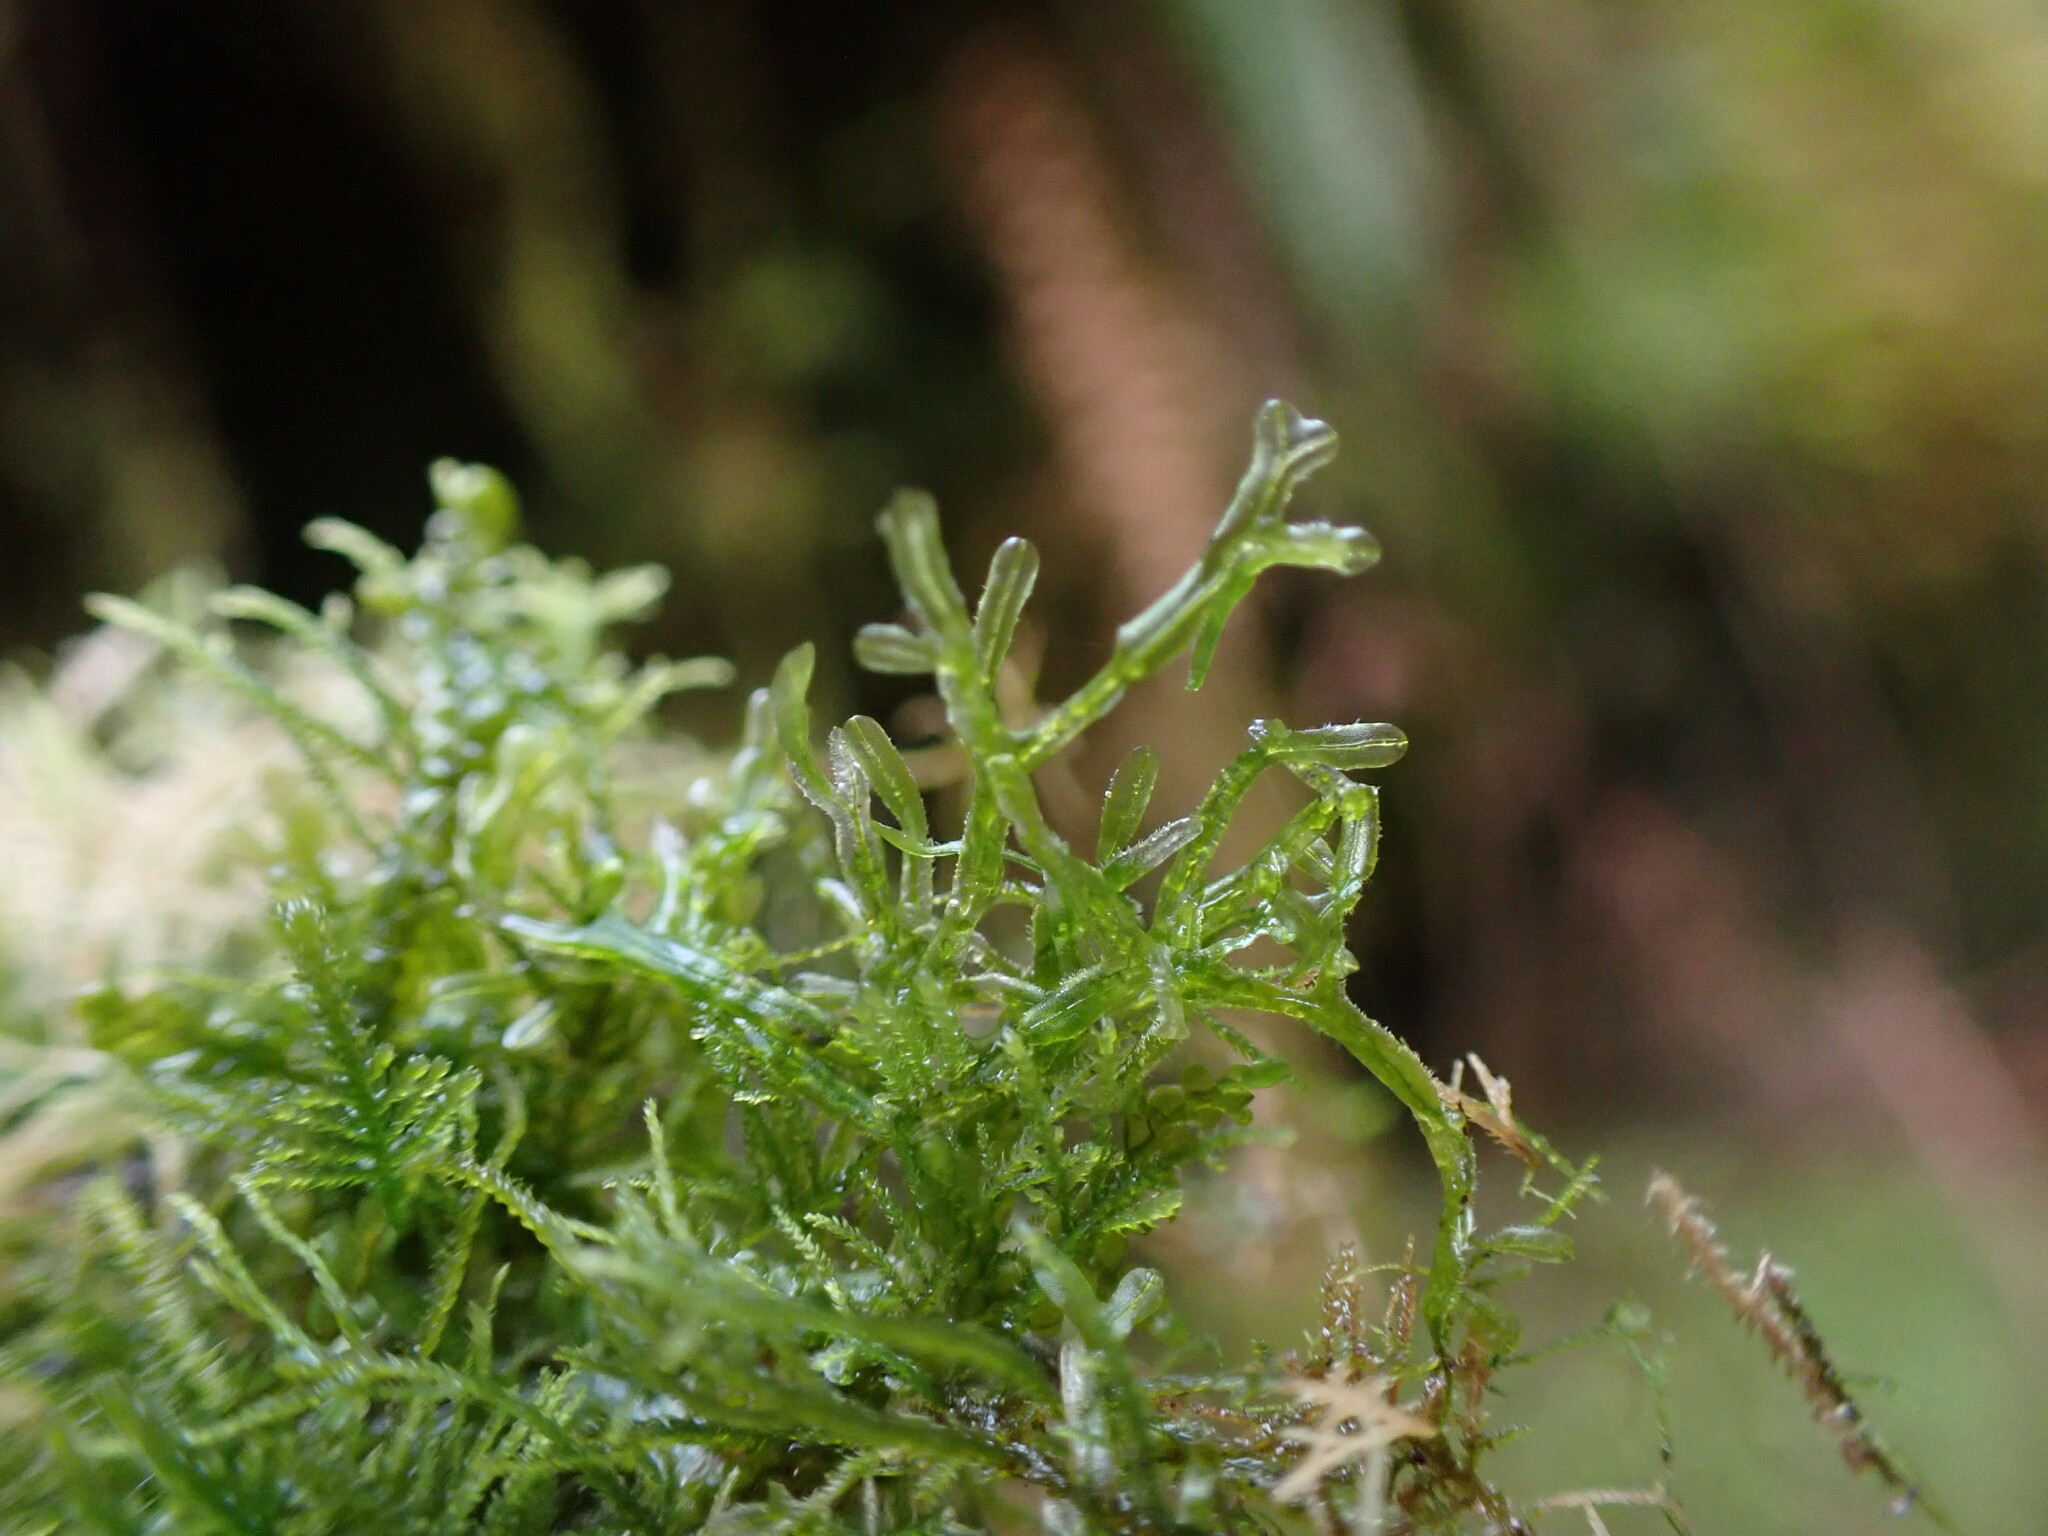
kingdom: Plantae
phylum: Marchantiophyta
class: Jungermanniopsida
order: Metzgeriales
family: Metzgeriaceae
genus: Metzgeria
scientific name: Metzgeria conjugata
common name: Rock veilwort
